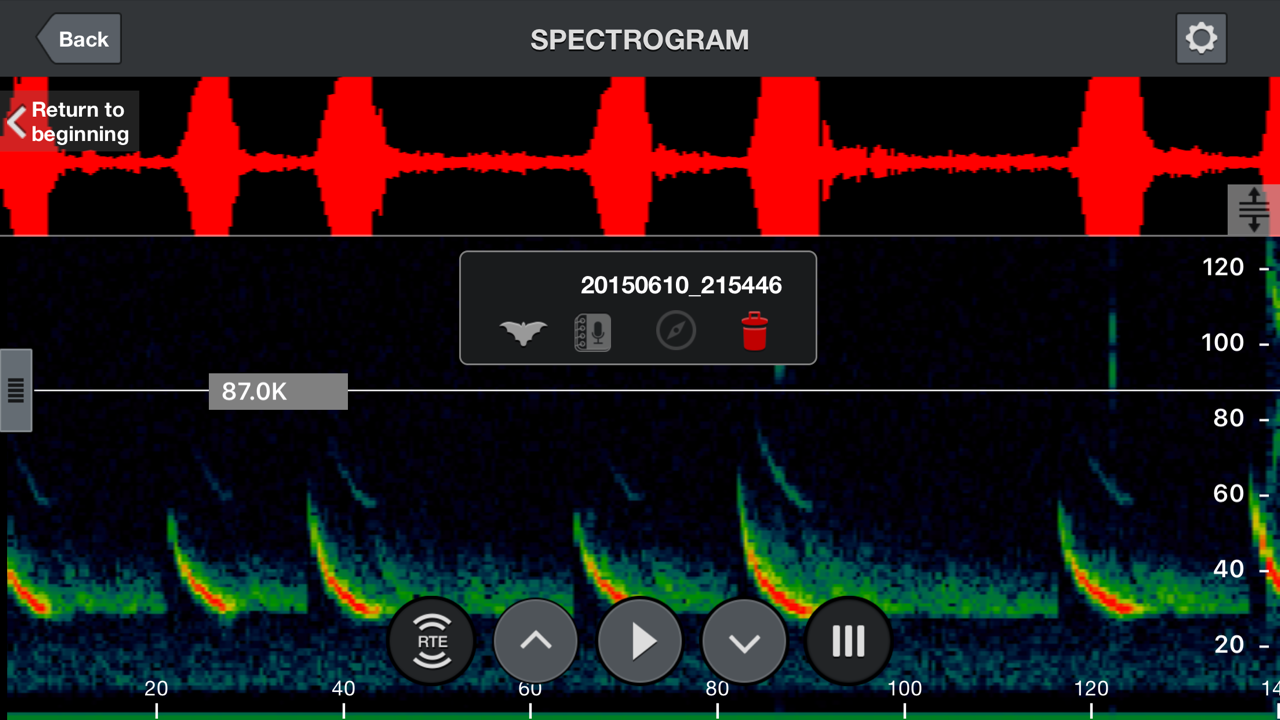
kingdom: Animalia
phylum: Chordata
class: Mammalia
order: Chiroptera
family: Vespertilionidae
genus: Eptesicus
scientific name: Eptesicus fuscus
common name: Big brown bat
